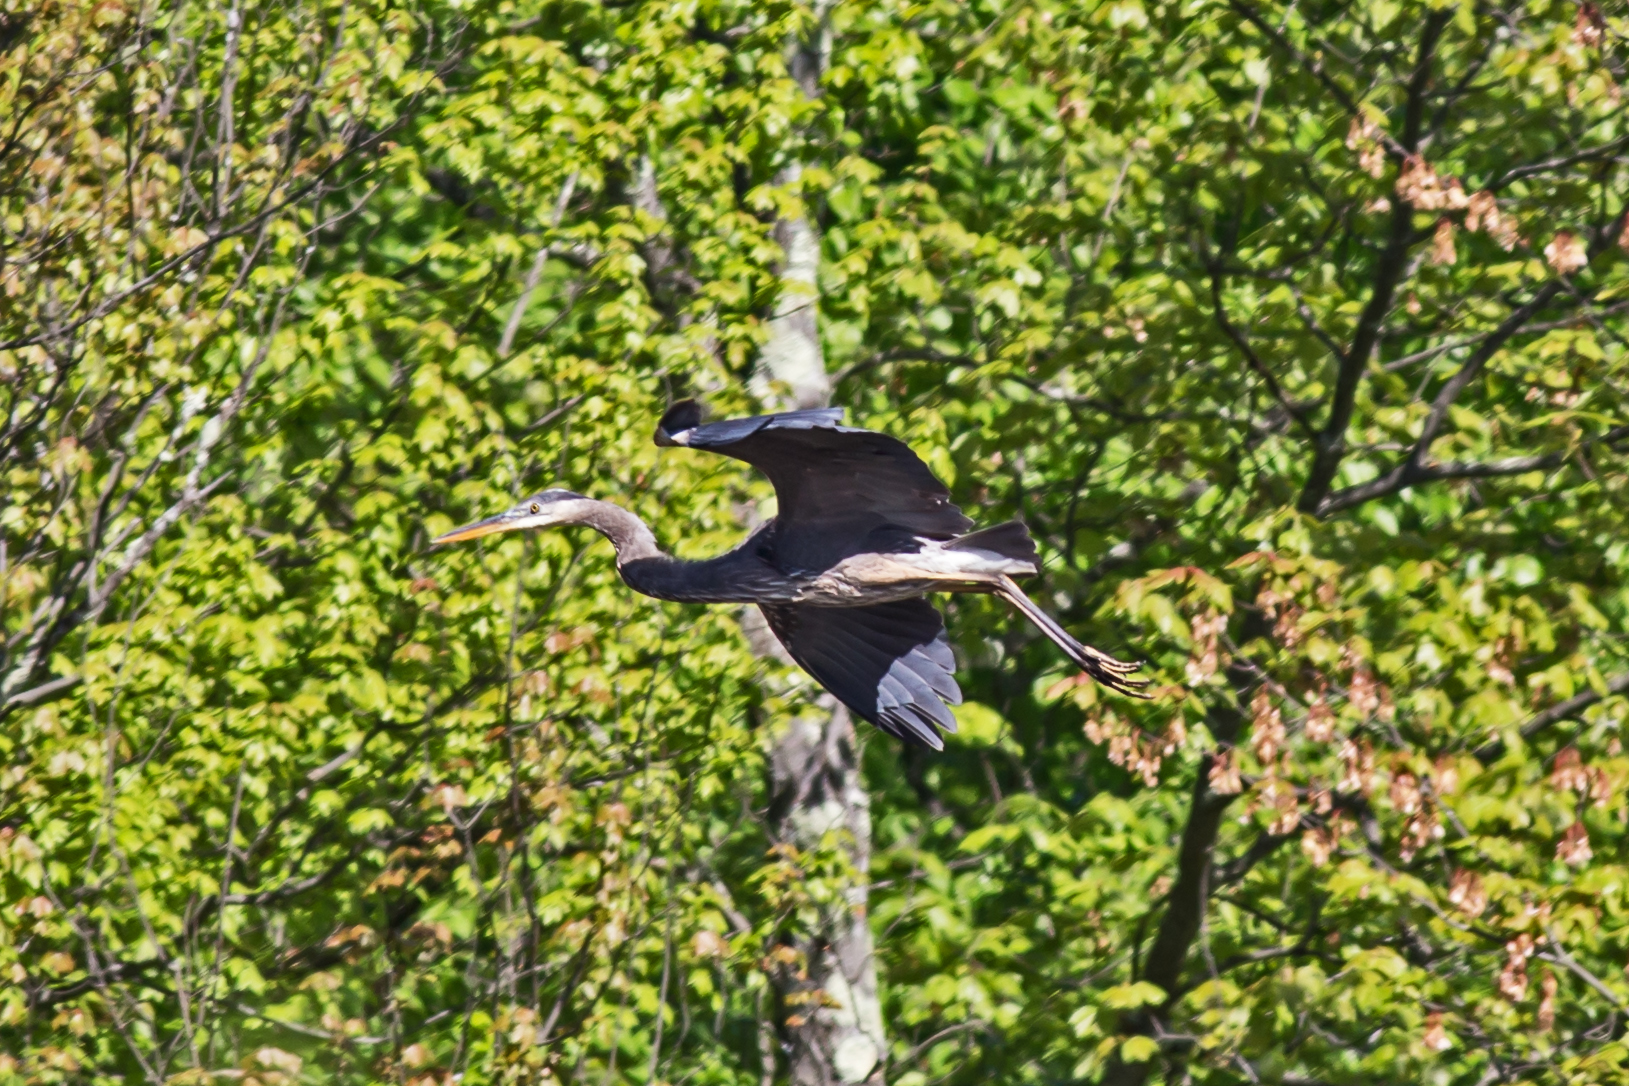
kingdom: Animalia
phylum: Chordata
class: Aves
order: Pelecaniformes
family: Ardeidae
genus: Ardea
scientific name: Ardea herodias
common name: Great blue heron
